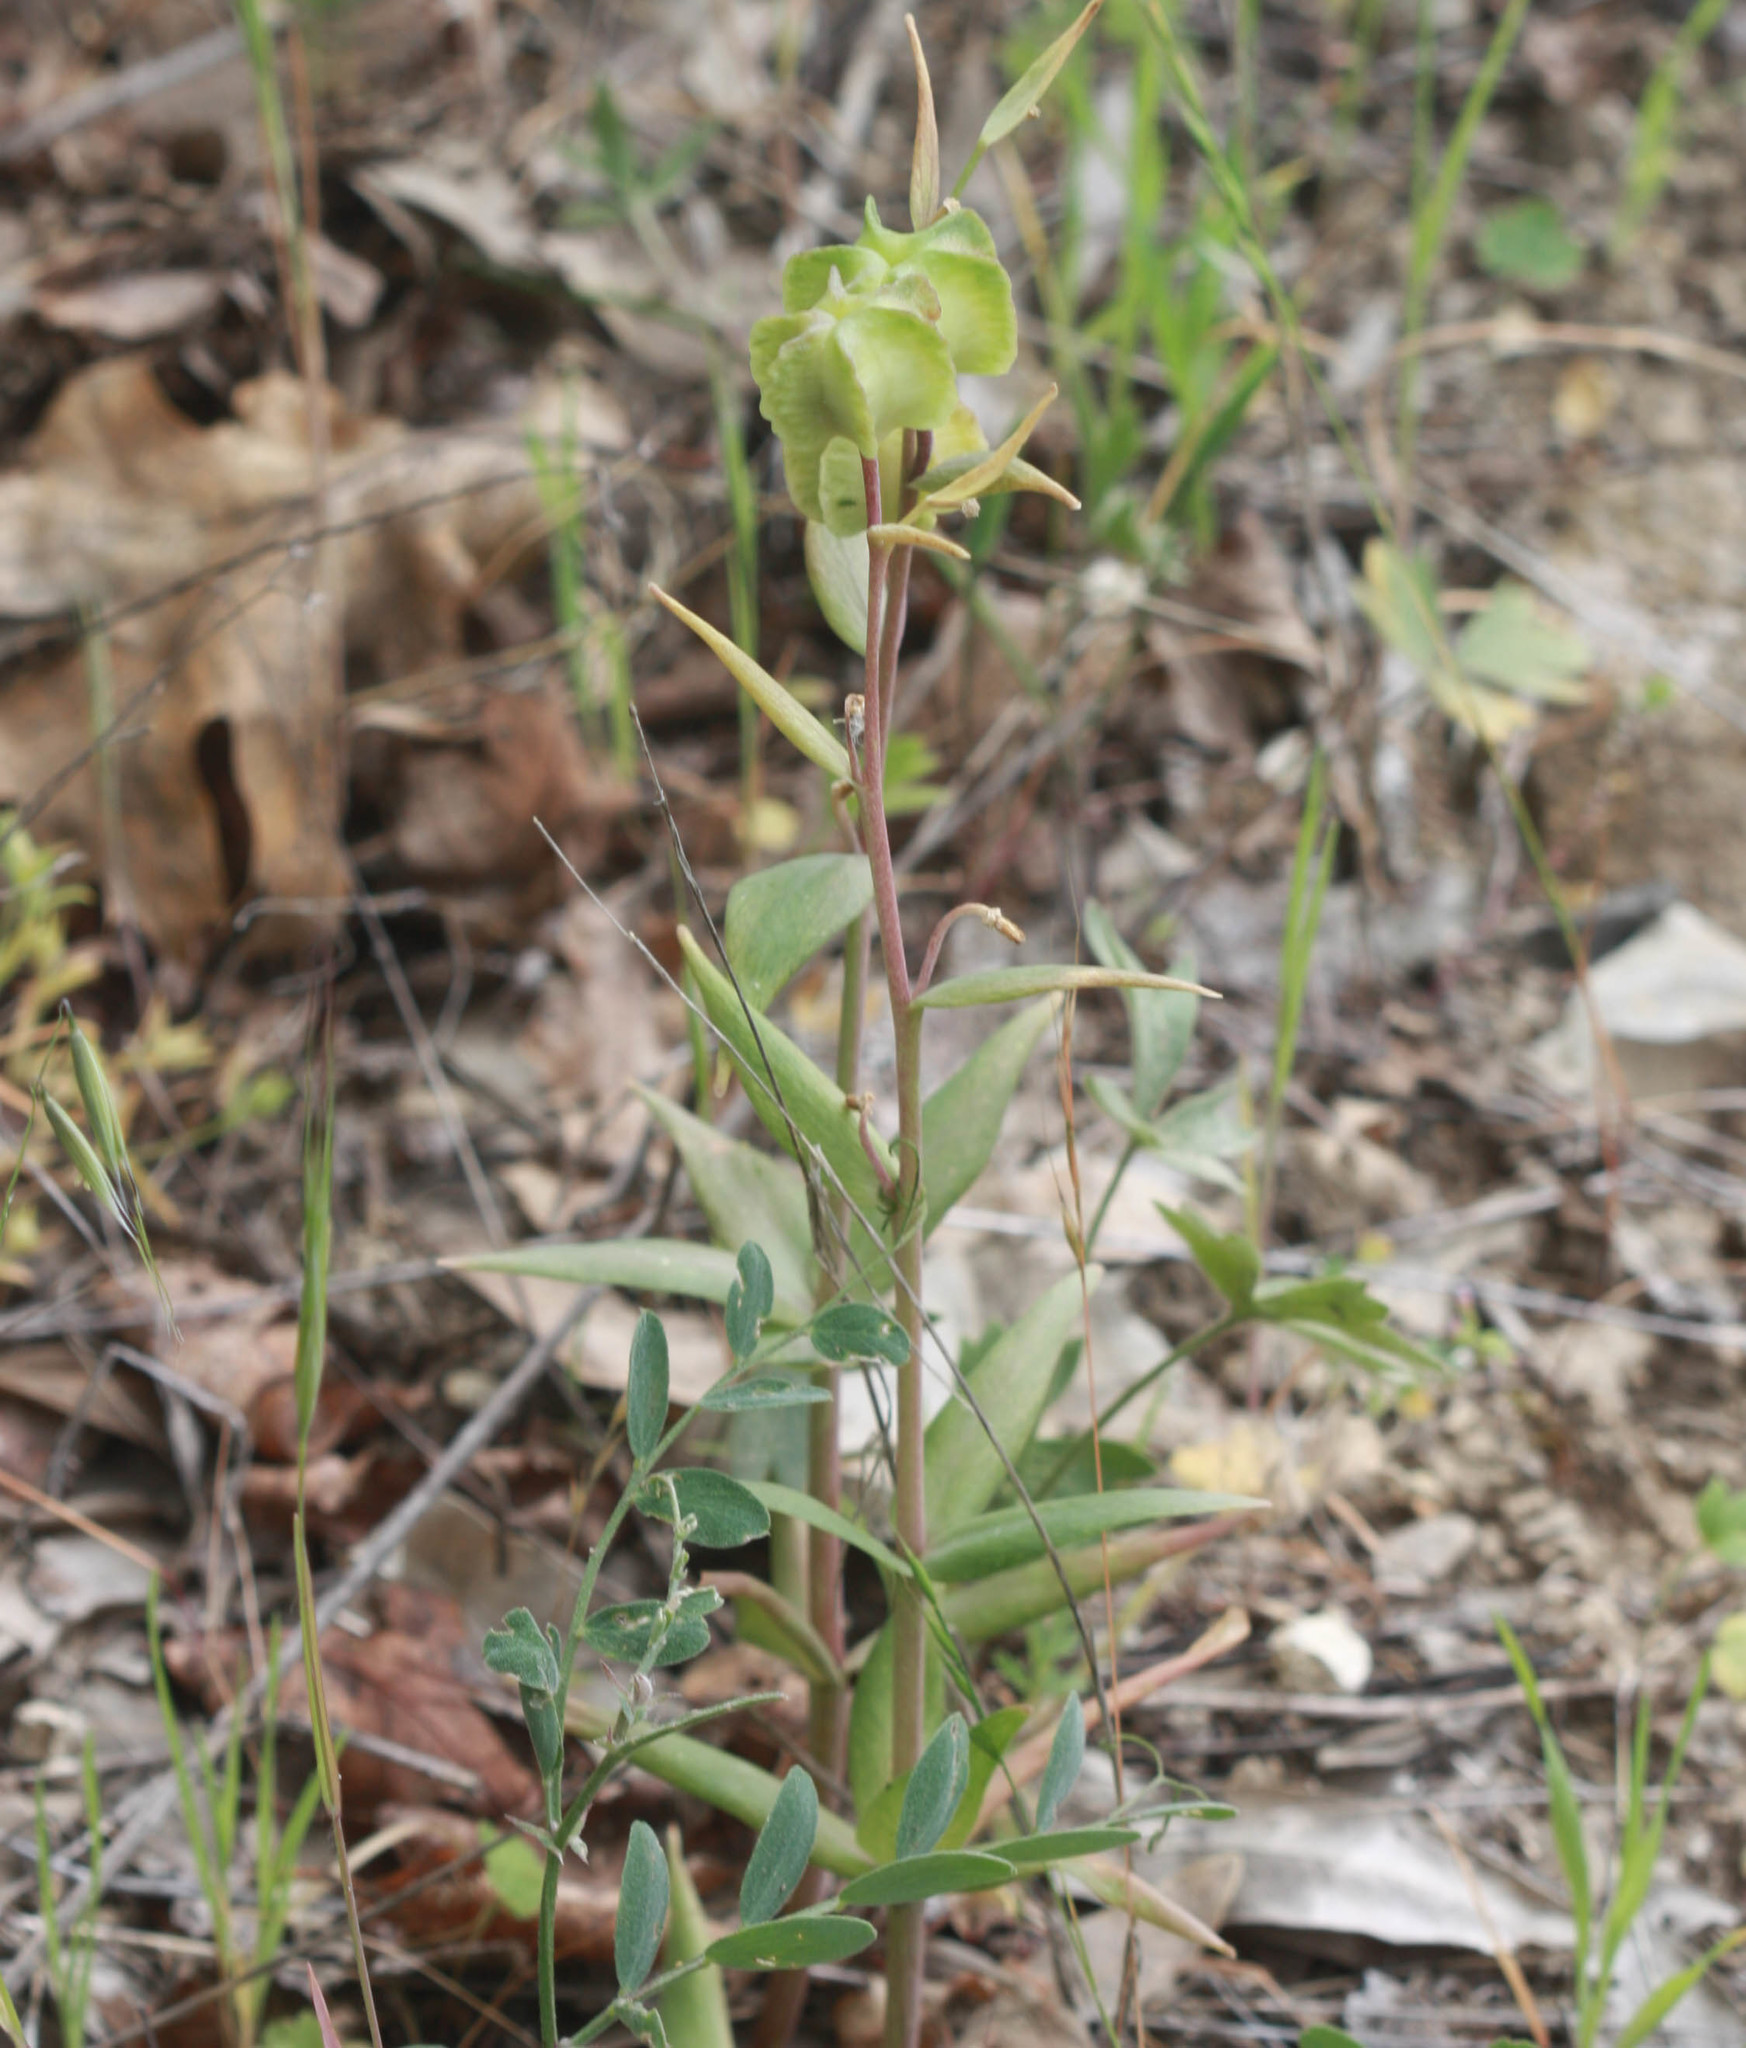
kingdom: Plantae
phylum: Tracheophyta
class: Liliopsida
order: Liliales
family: Liliaceae
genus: Fritillaria
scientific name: Fritillaria affinis
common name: Ojai fritillary
